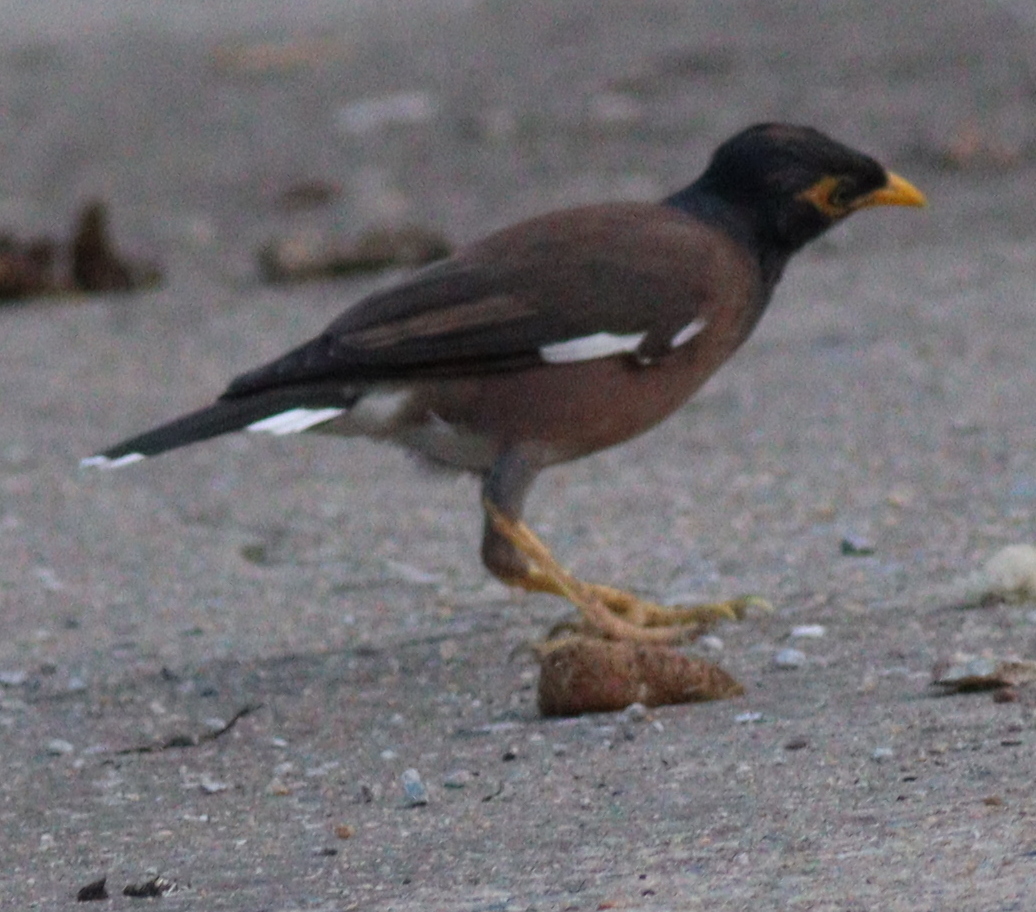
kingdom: Animalia
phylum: Chordata
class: Aves
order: Passeriformes
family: Sturnidae
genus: Acridotheres
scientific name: Acridotheres tristis
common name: Common myna
